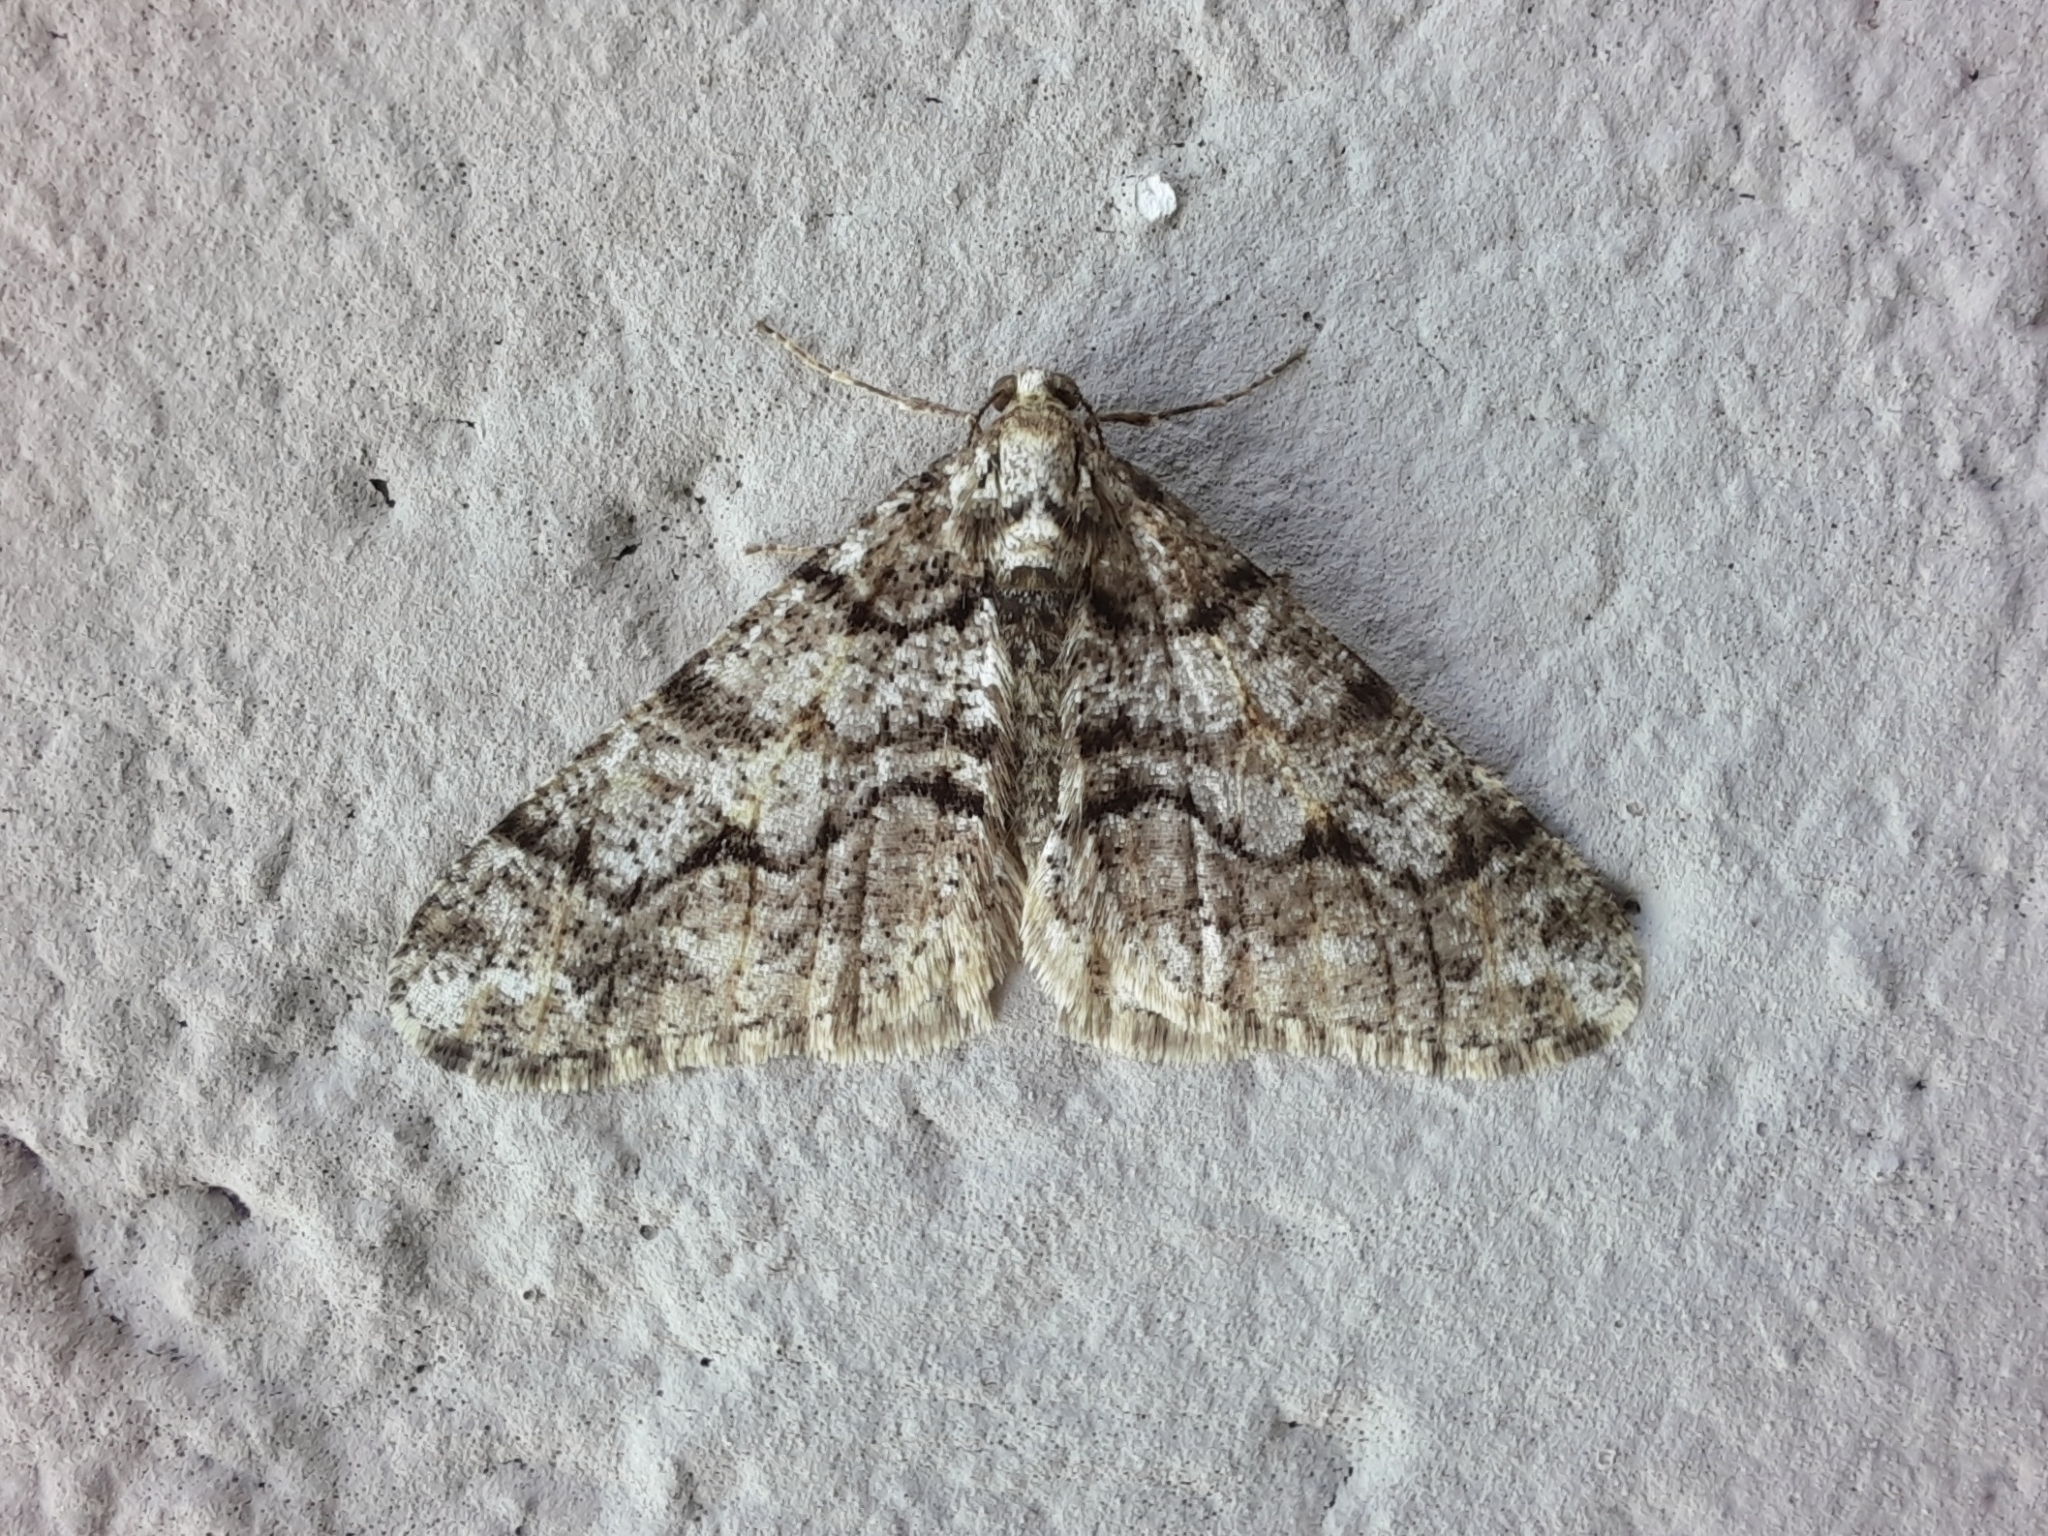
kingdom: Animalia
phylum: Arthropoda
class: Insecta
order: Lepidoptera
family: Geometridae
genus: Agriopis
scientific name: Agriopis leucophaearia
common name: Spring usher
